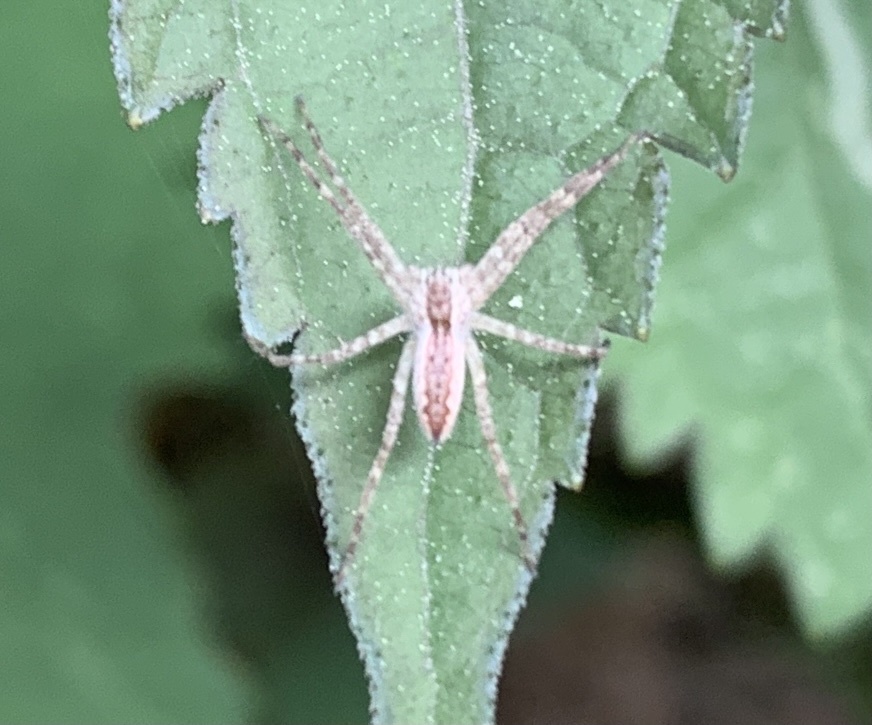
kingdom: Animalia
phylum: Arthropoda
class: Arachnida
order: Araneae
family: Pisauridae
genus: Pisaurina
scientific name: Pisaurina mira
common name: American nursery web spider
